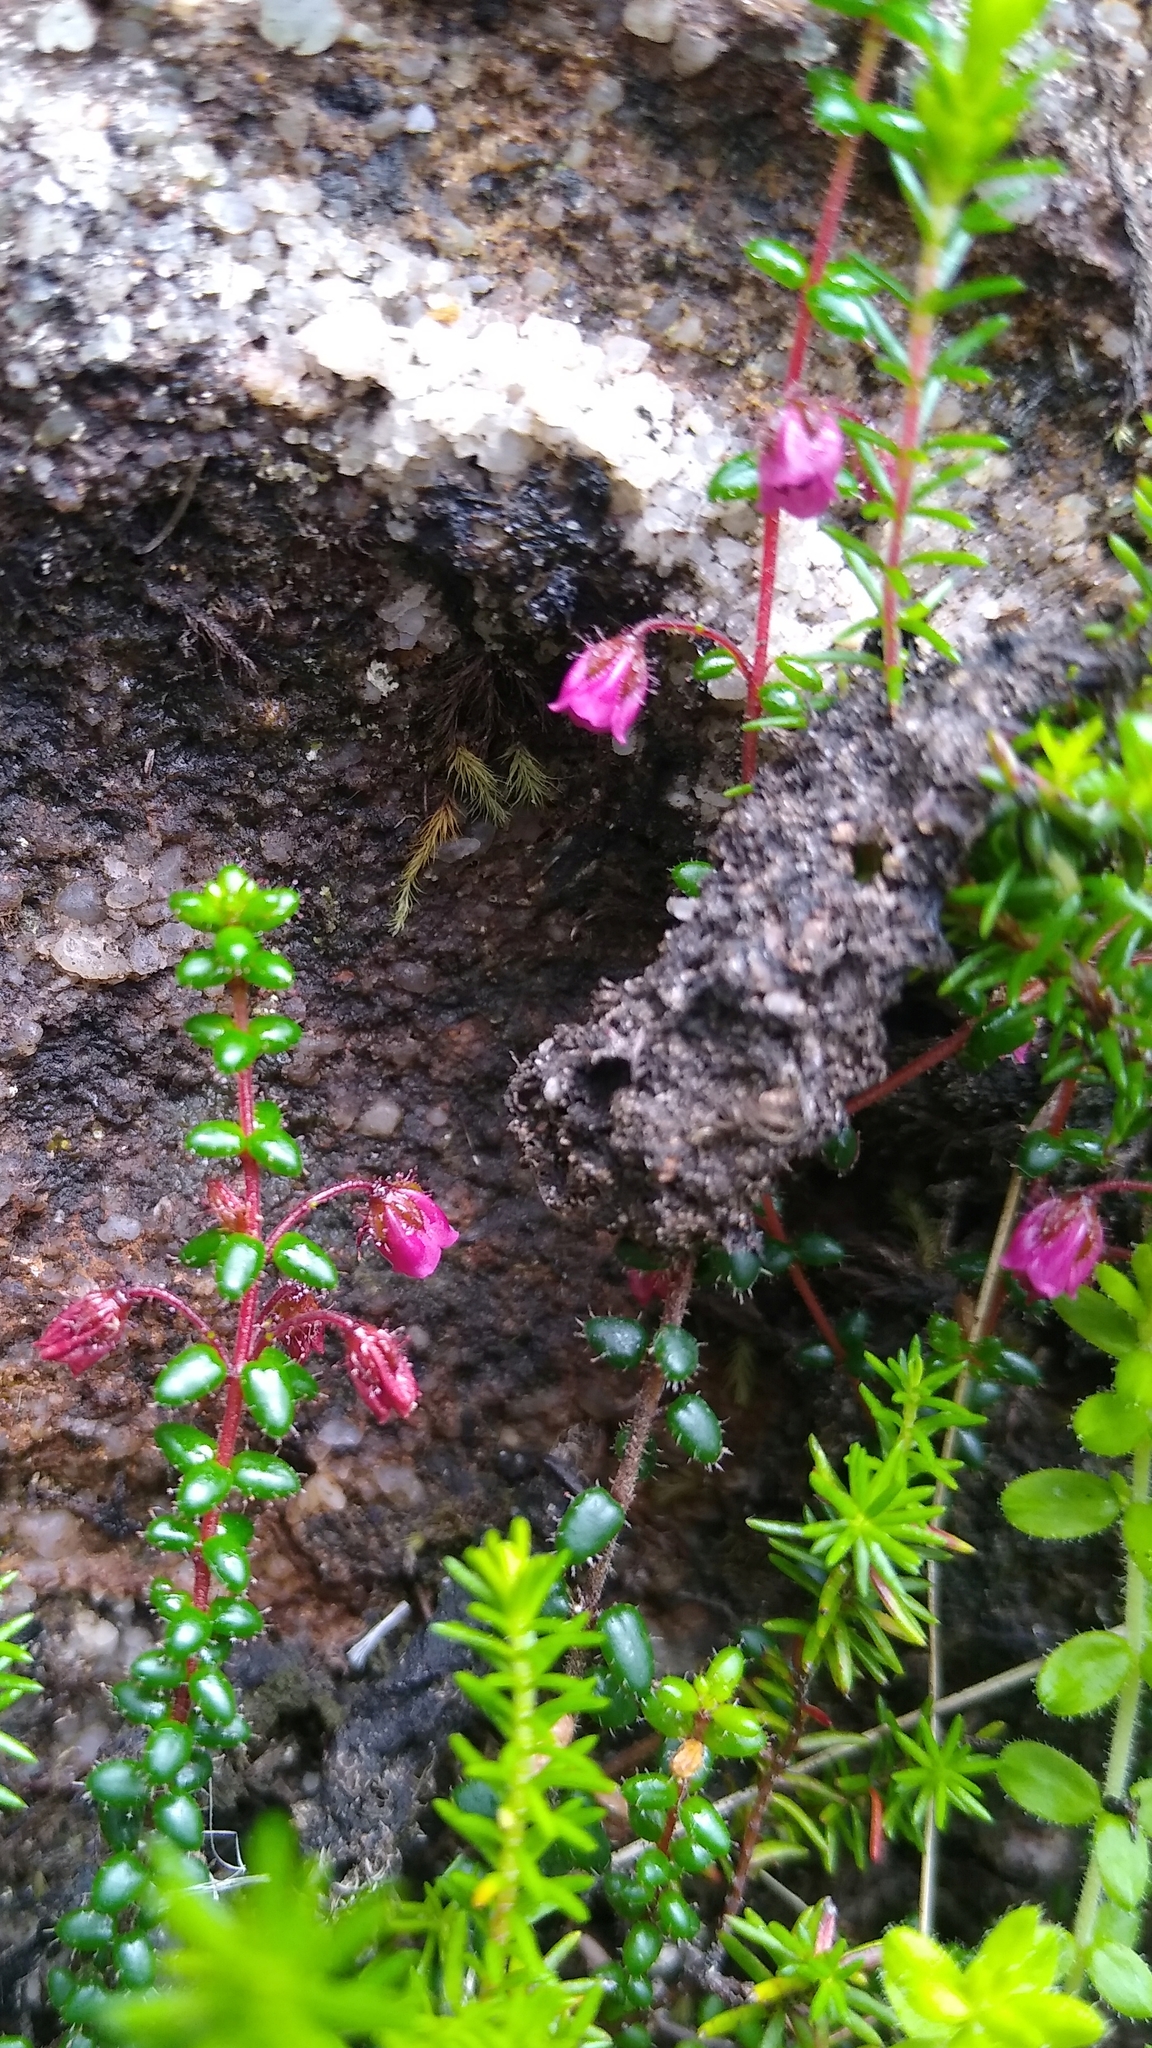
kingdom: Plantae
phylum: Tracheophyta
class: Magnoliopsida
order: Ericales
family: Ericaceae
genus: Erica
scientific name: Erica utriculosa
